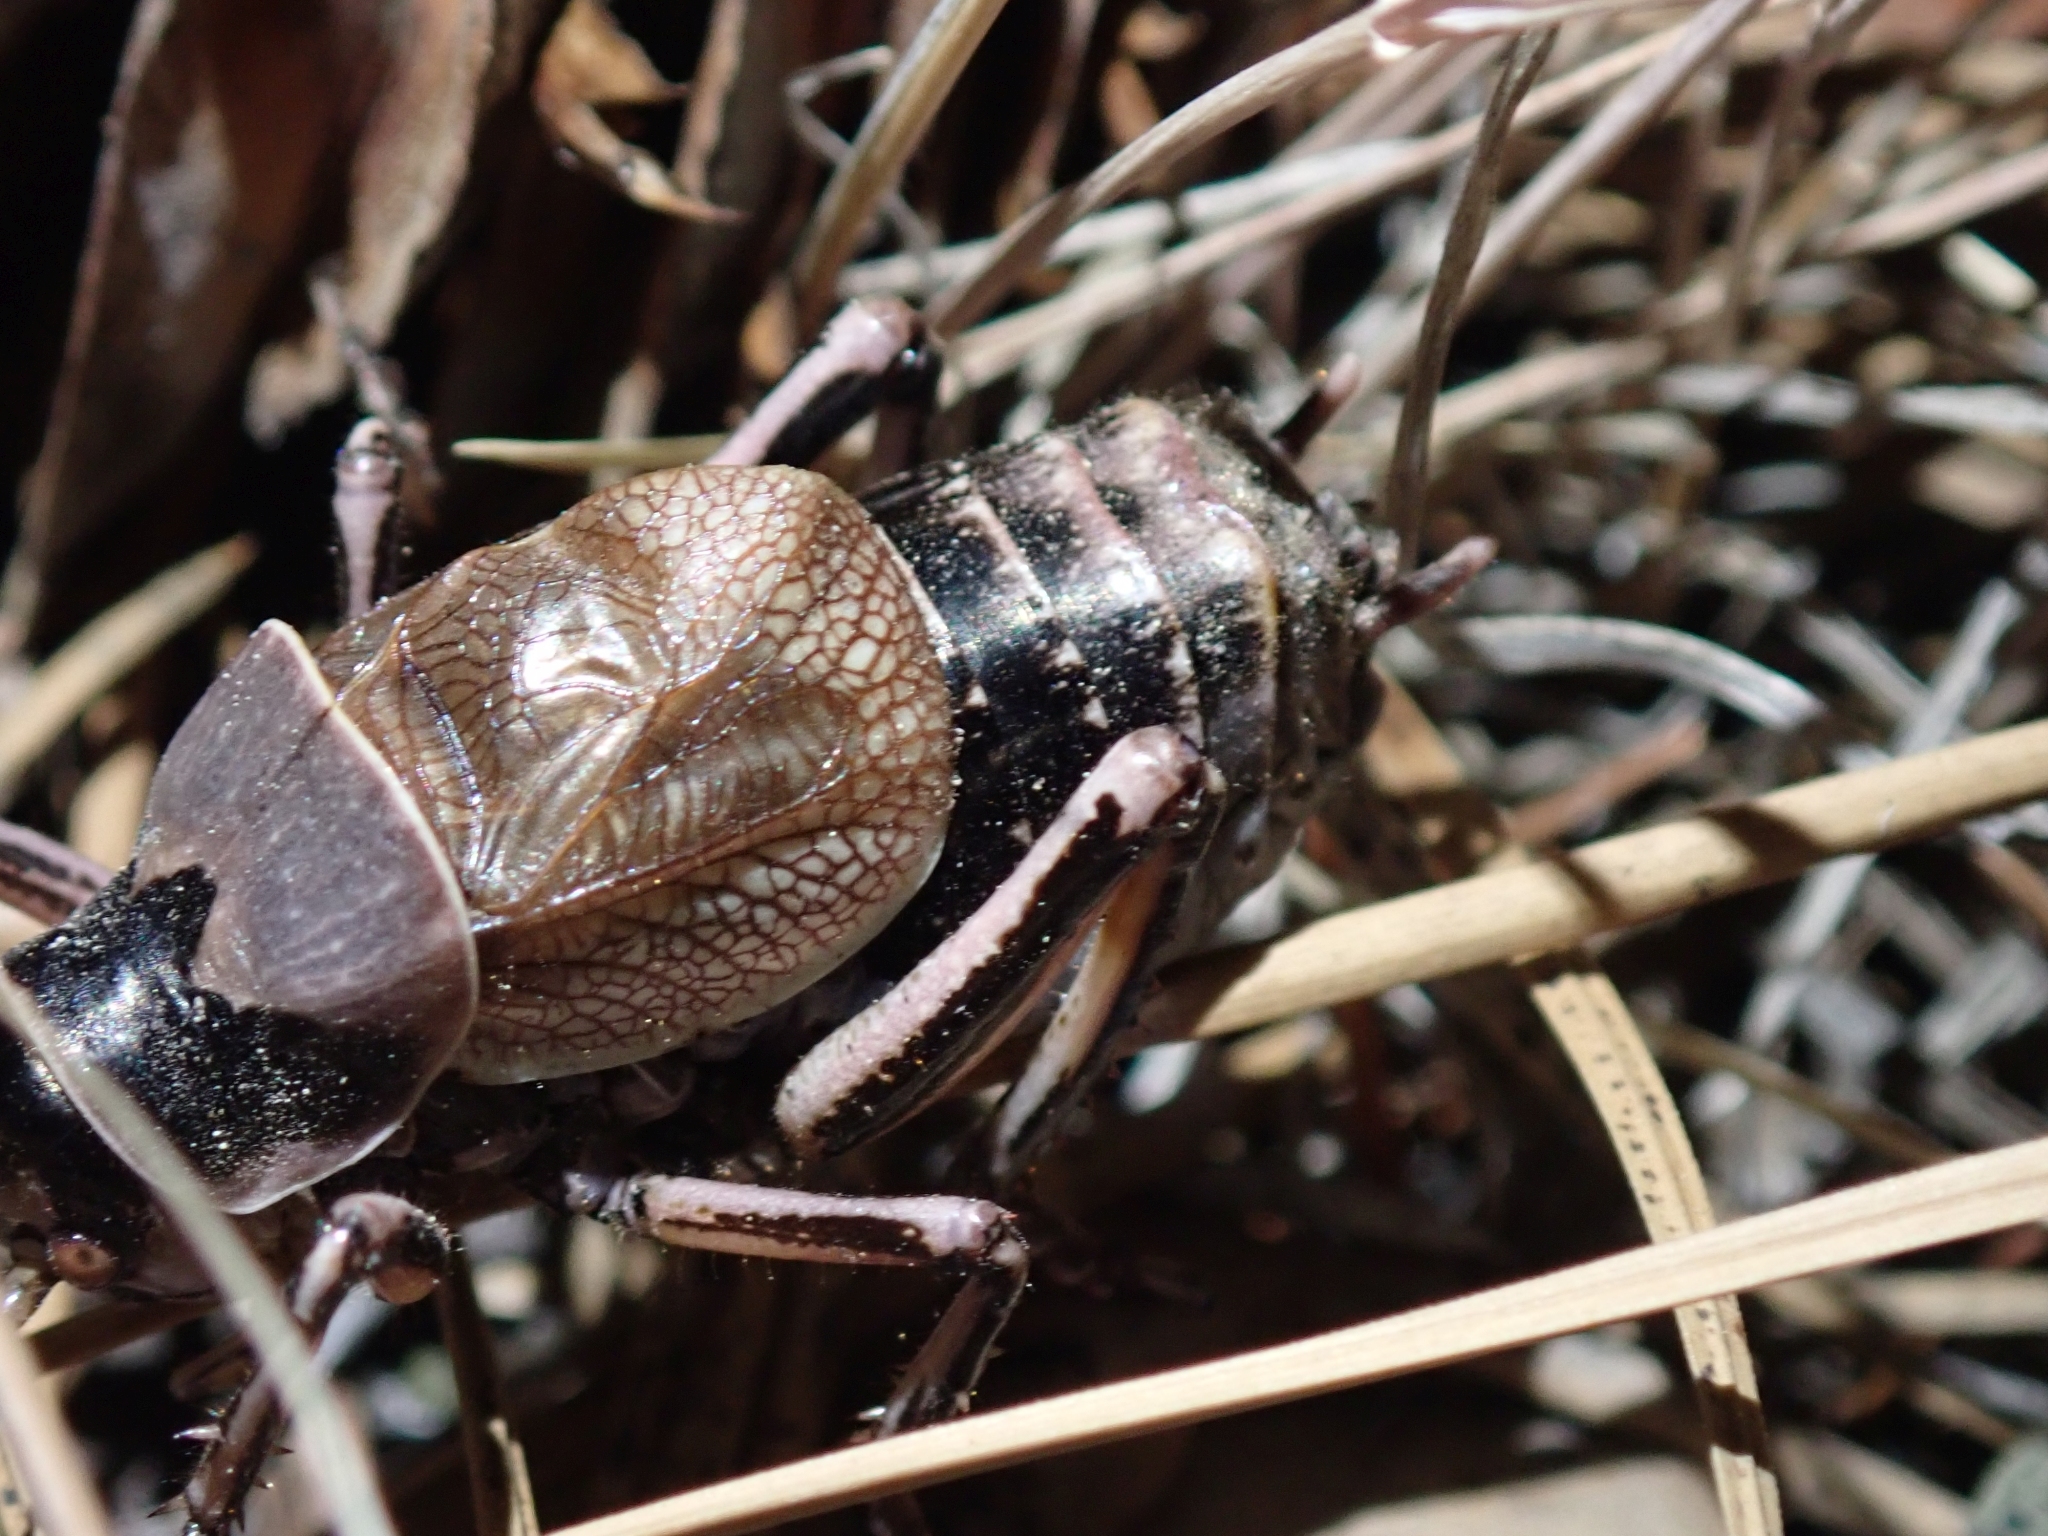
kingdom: Animalia
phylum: Arthropoda
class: Insecta
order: Orthoptera
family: Prophalangopsidae
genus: Cyphoderris
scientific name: Cyphoderris monstrosa
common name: Great grig
